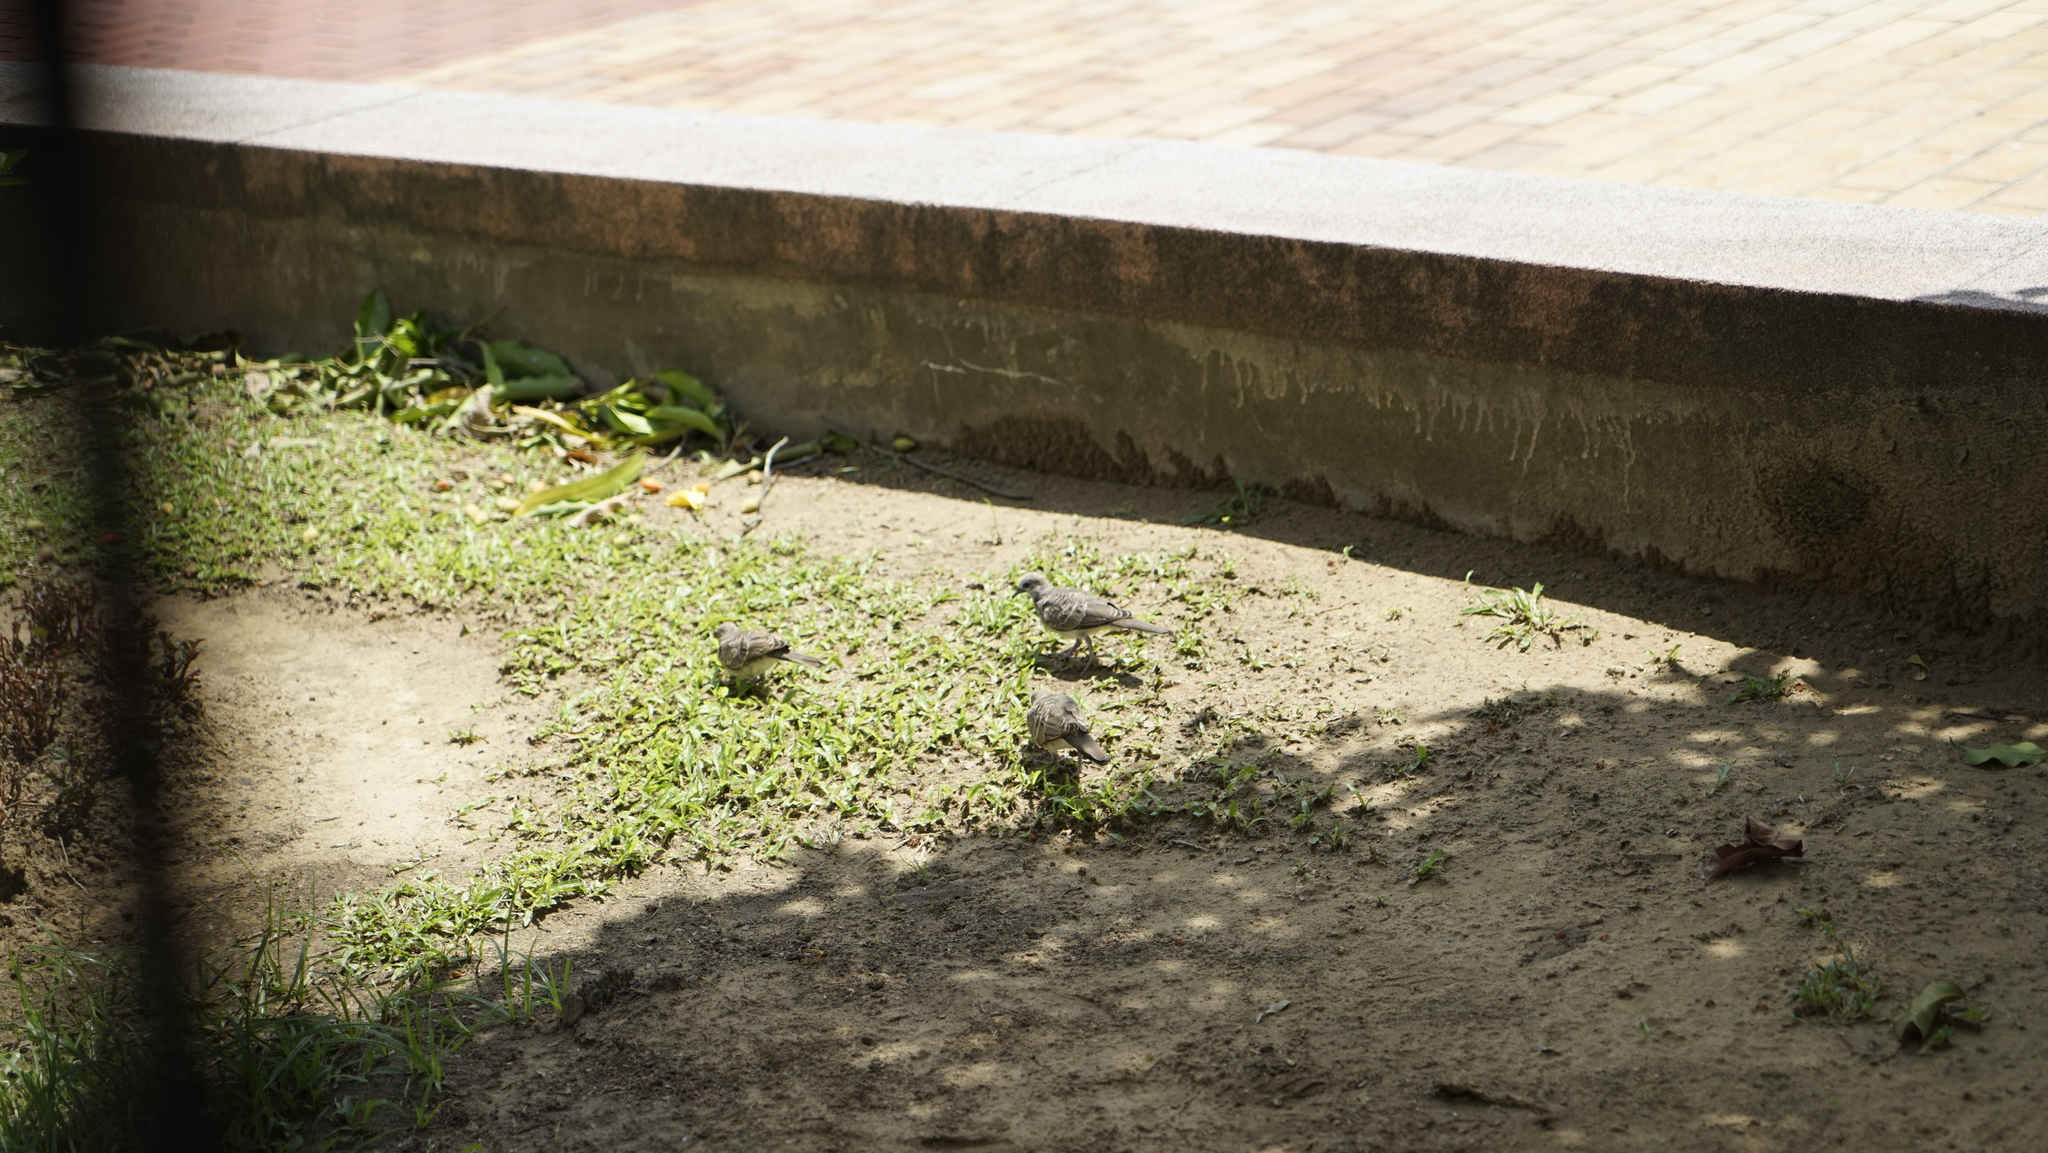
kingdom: Animalia
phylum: Chordata
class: Aves
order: Columbiformes
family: Columbidae
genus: Geopelia
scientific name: Geopelia striata
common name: Zebra dove
